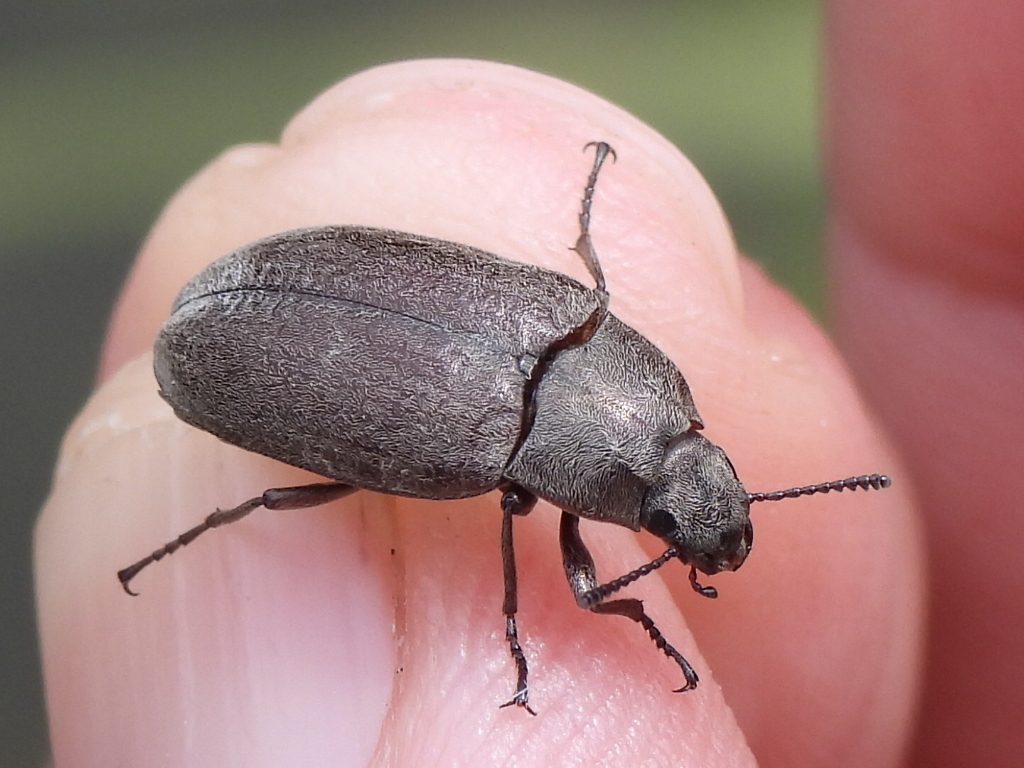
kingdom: Animalia
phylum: Arthropoda
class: Insecta
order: Coleoptera
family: Tenebrionidae
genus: Bothrotes
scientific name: Bothrotes canaliculatus
